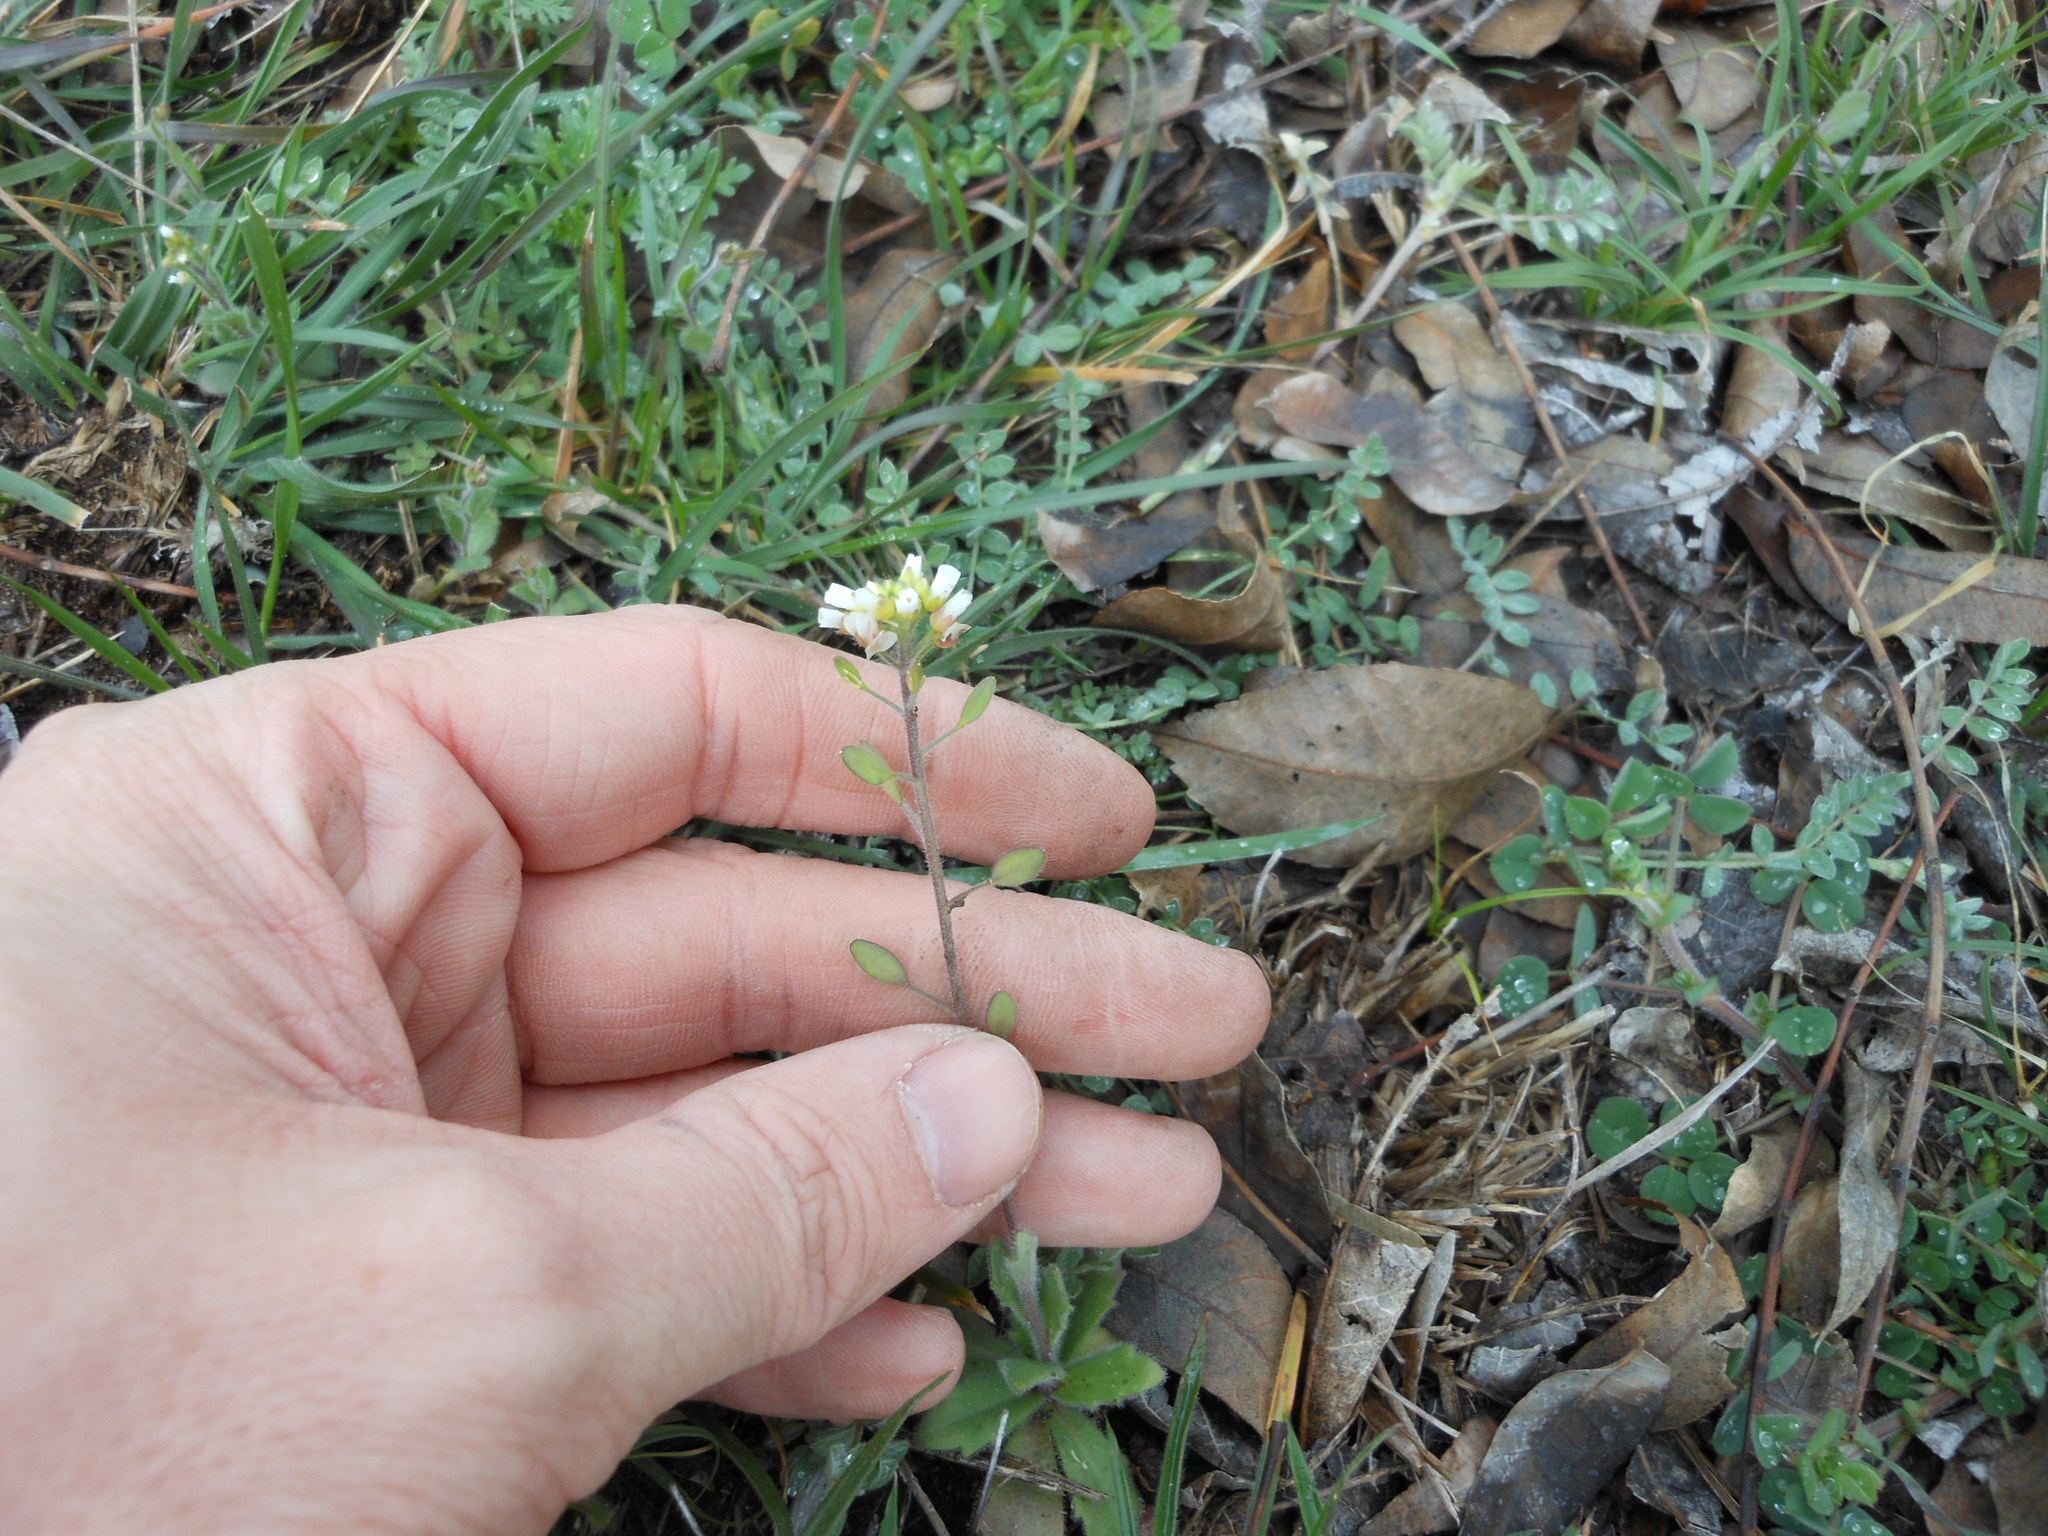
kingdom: Plantae
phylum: Tracheophyta
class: Magnoliopsida
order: Brassicales
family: Brassicaceae
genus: Tomostima
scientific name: Tomostima platycarpa
